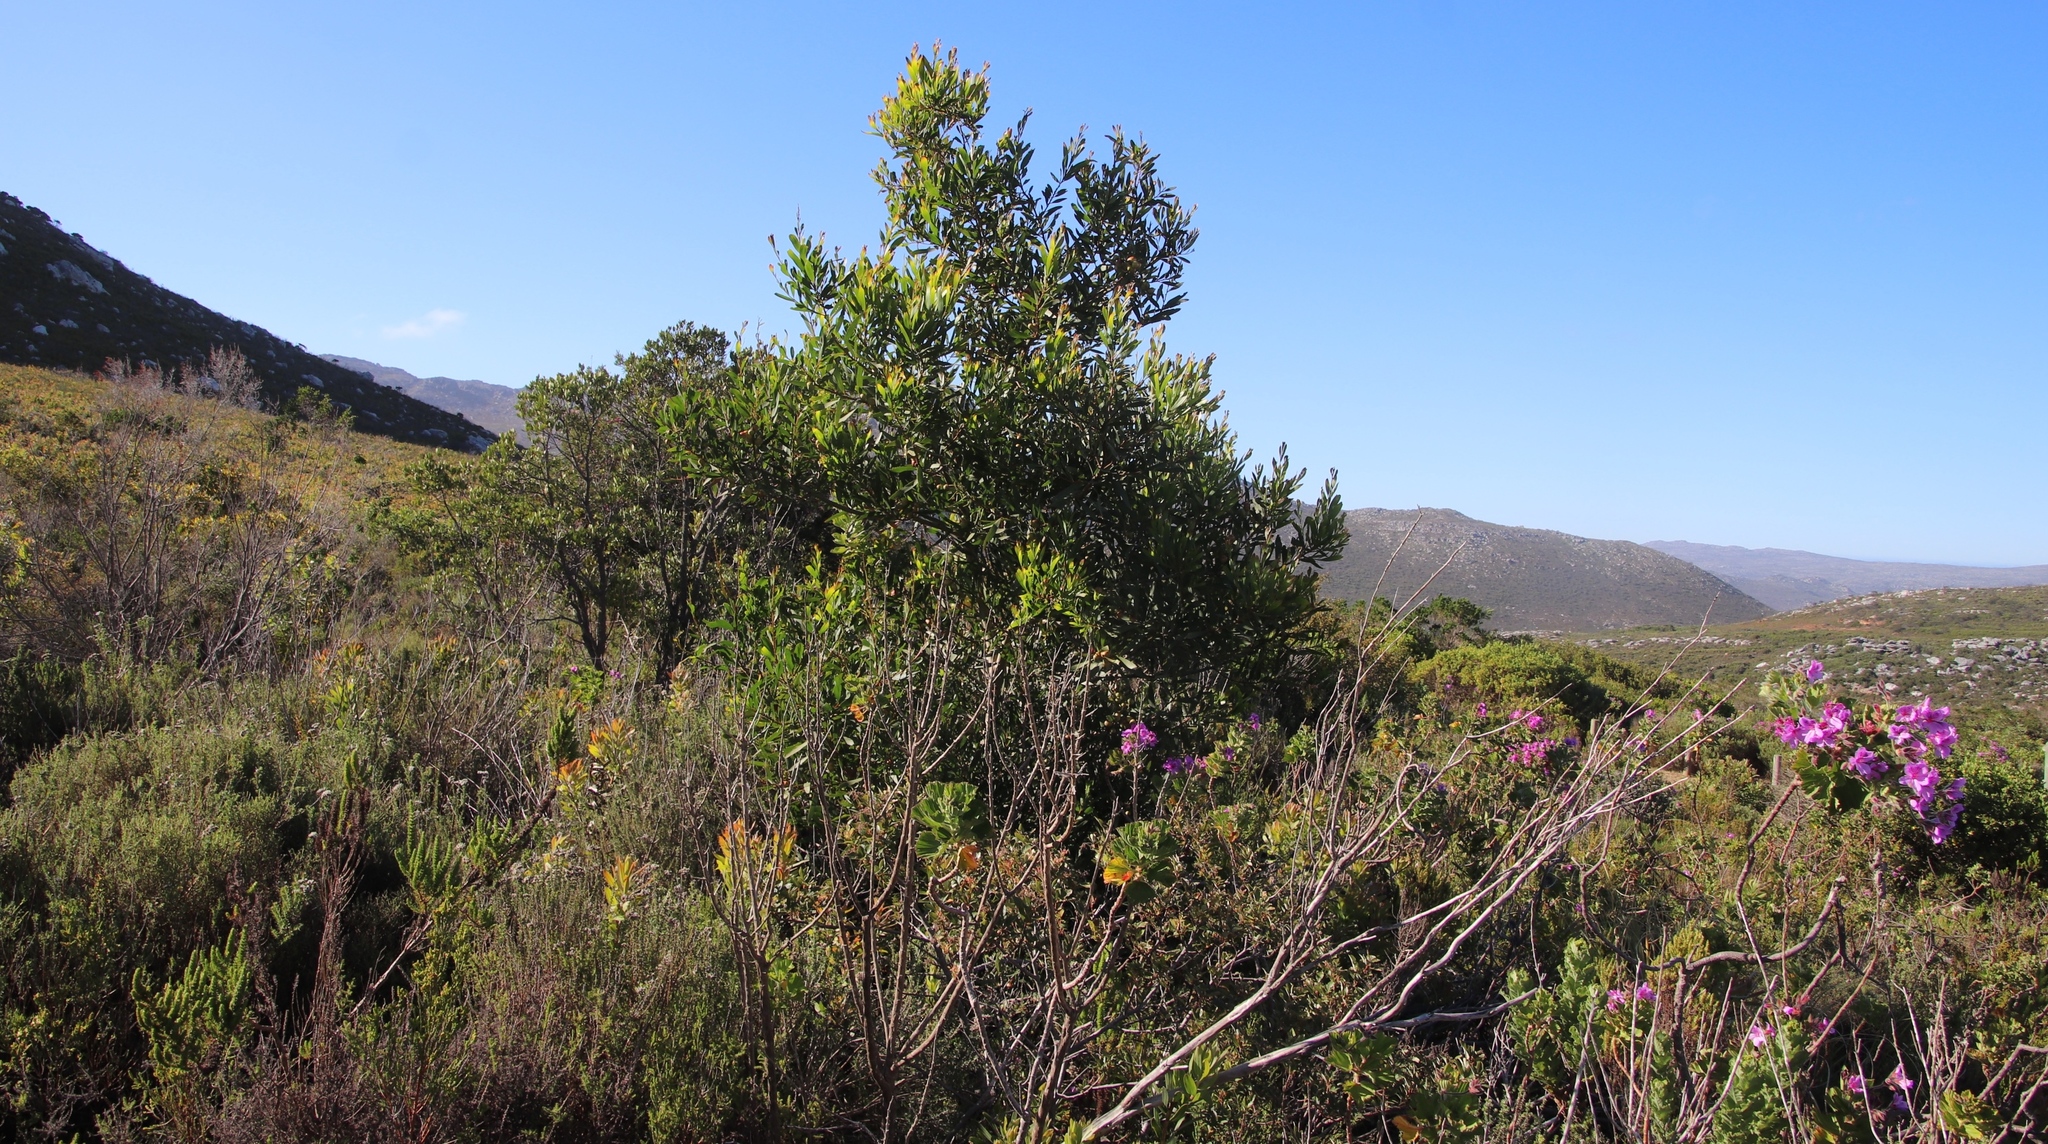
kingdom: Plantae
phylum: Tracheophyta
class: Magnoliopsida
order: Fabales
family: Fabaceae
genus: Acacia
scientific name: Acacia longifolia
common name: Sydney golden wattle
